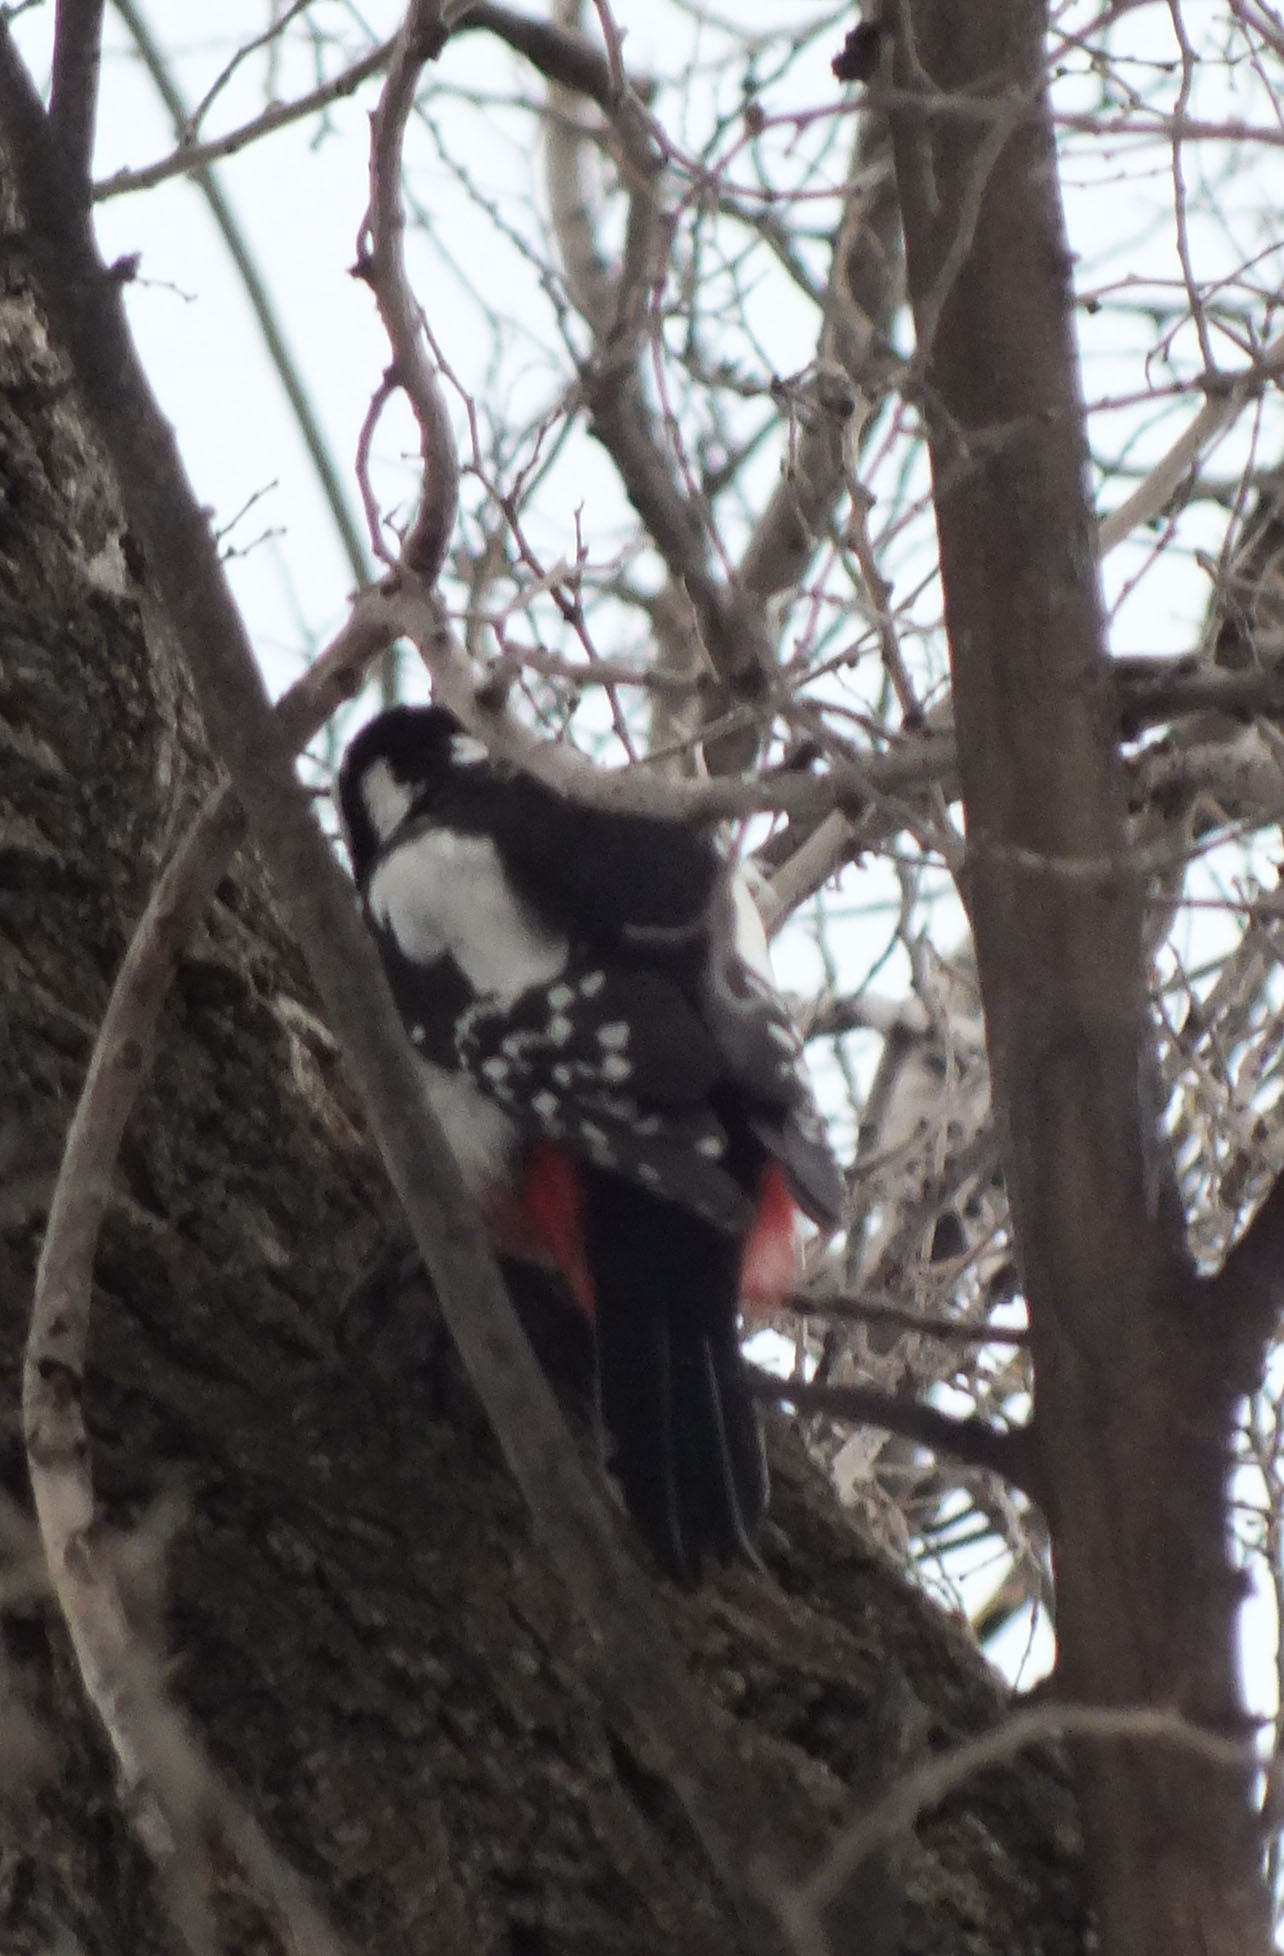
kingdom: Animalia
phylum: Chordata
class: Aves
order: Piciformes
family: Picidae
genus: Dendrocopos
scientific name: Dendrocopos major
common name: Great spotted woodpecker
